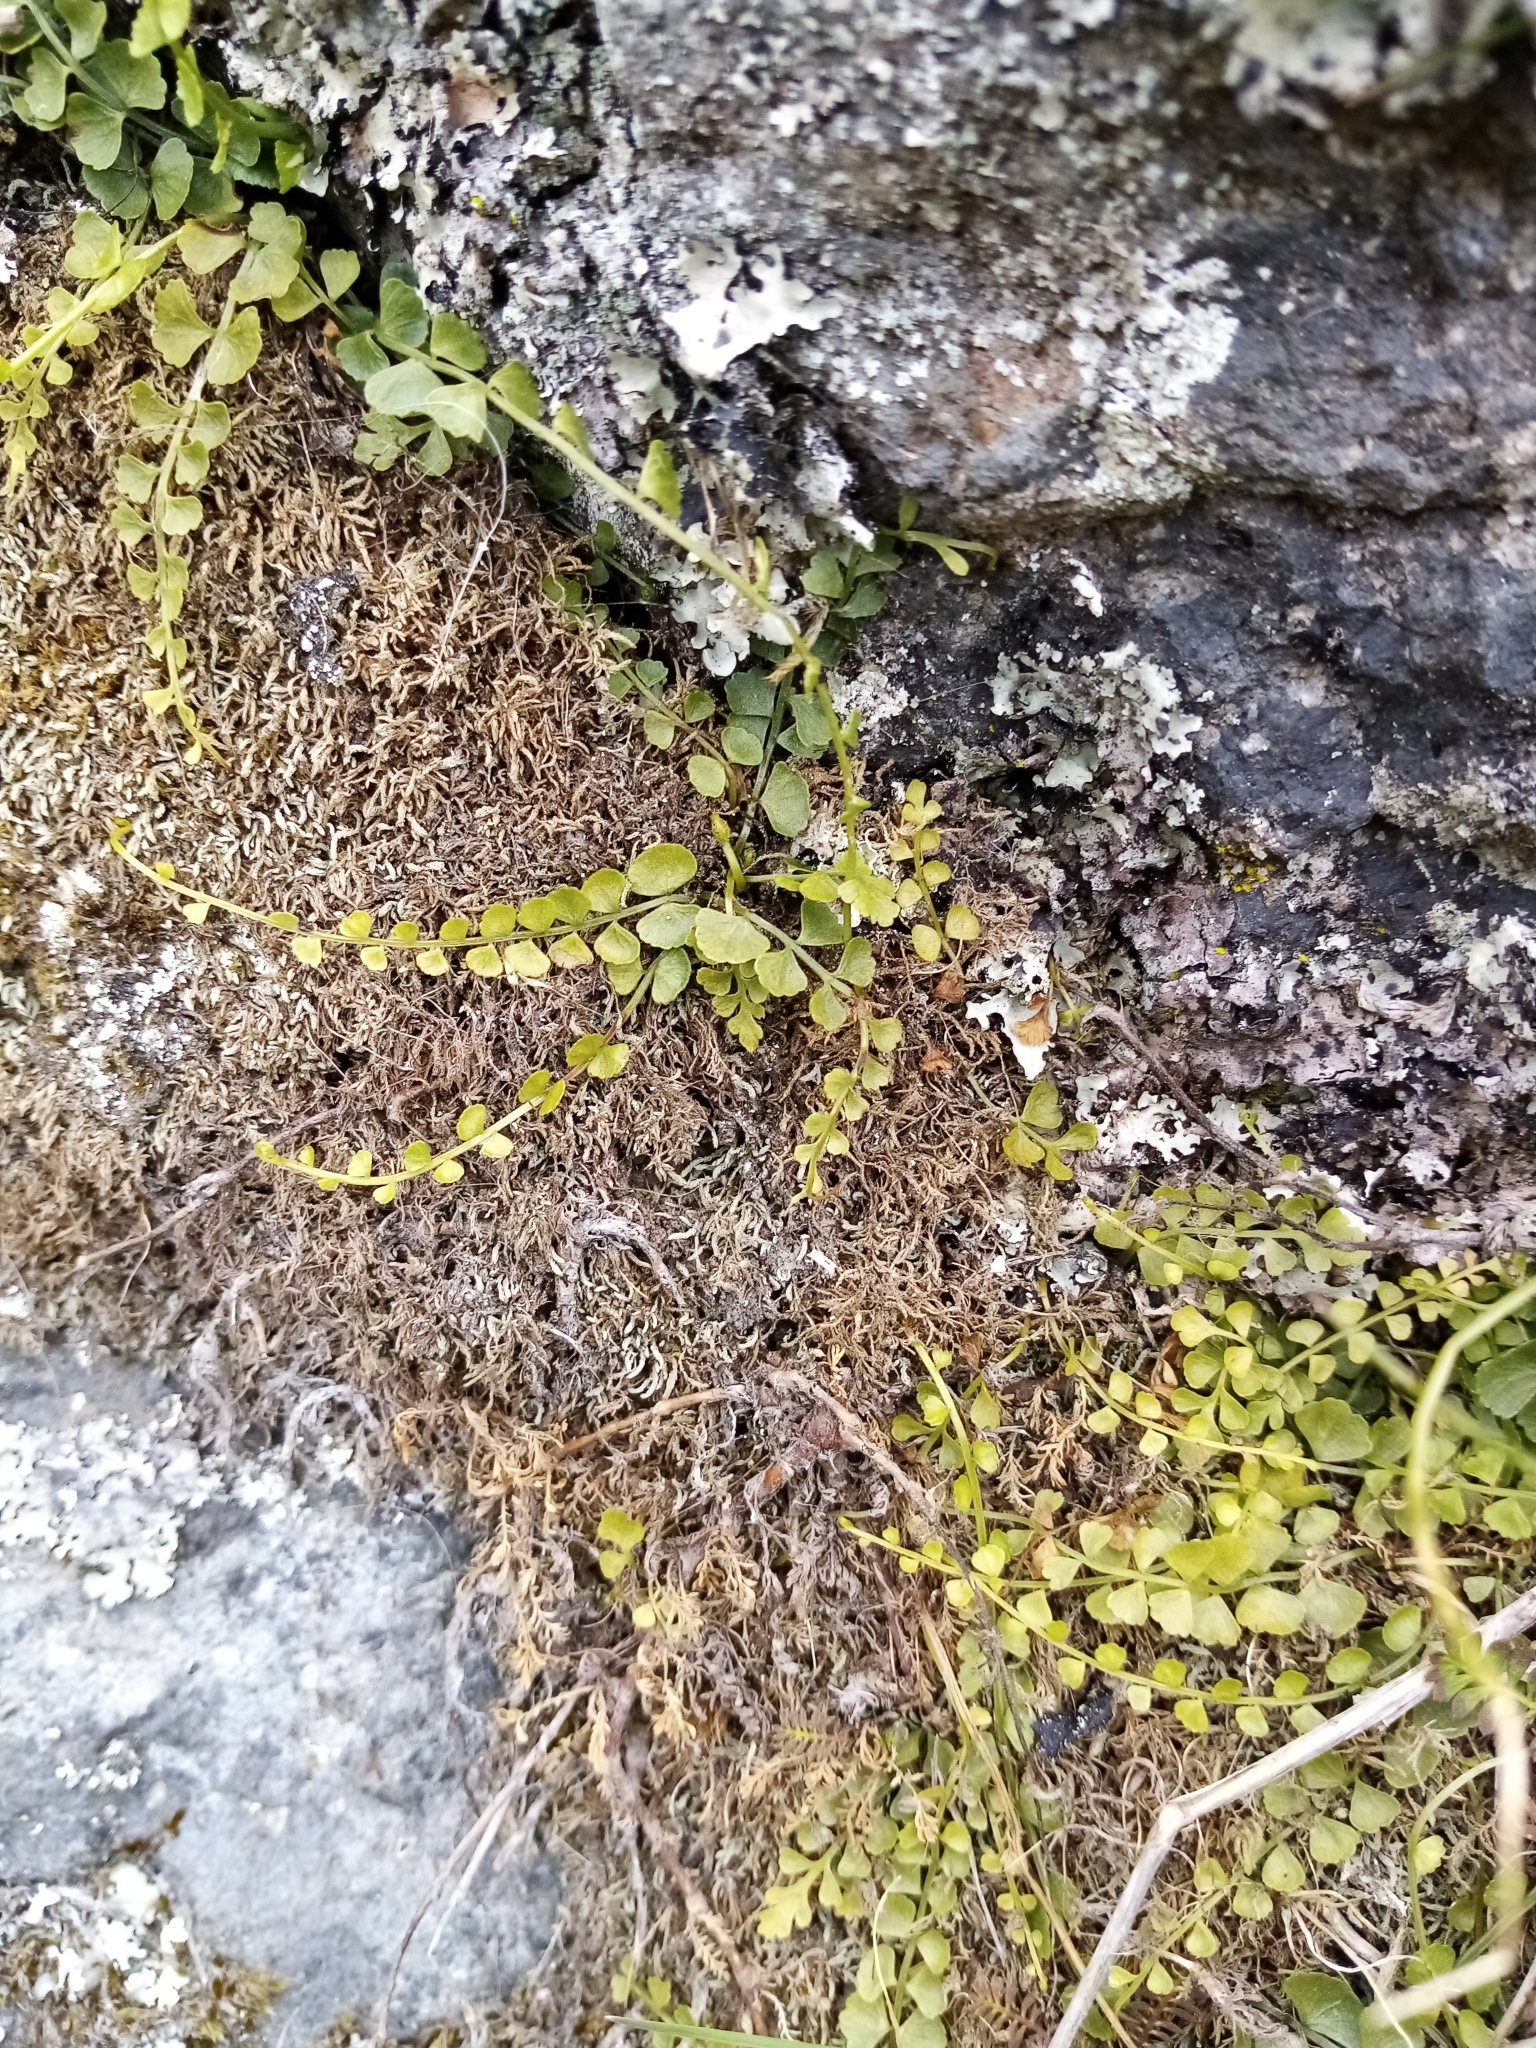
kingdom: Plantae
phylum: Tracheophyta
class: Polypodiopsida
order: Polypodiales
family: Aspleniaceae
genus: Asplenium
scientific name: Asplenium flabellifolium
